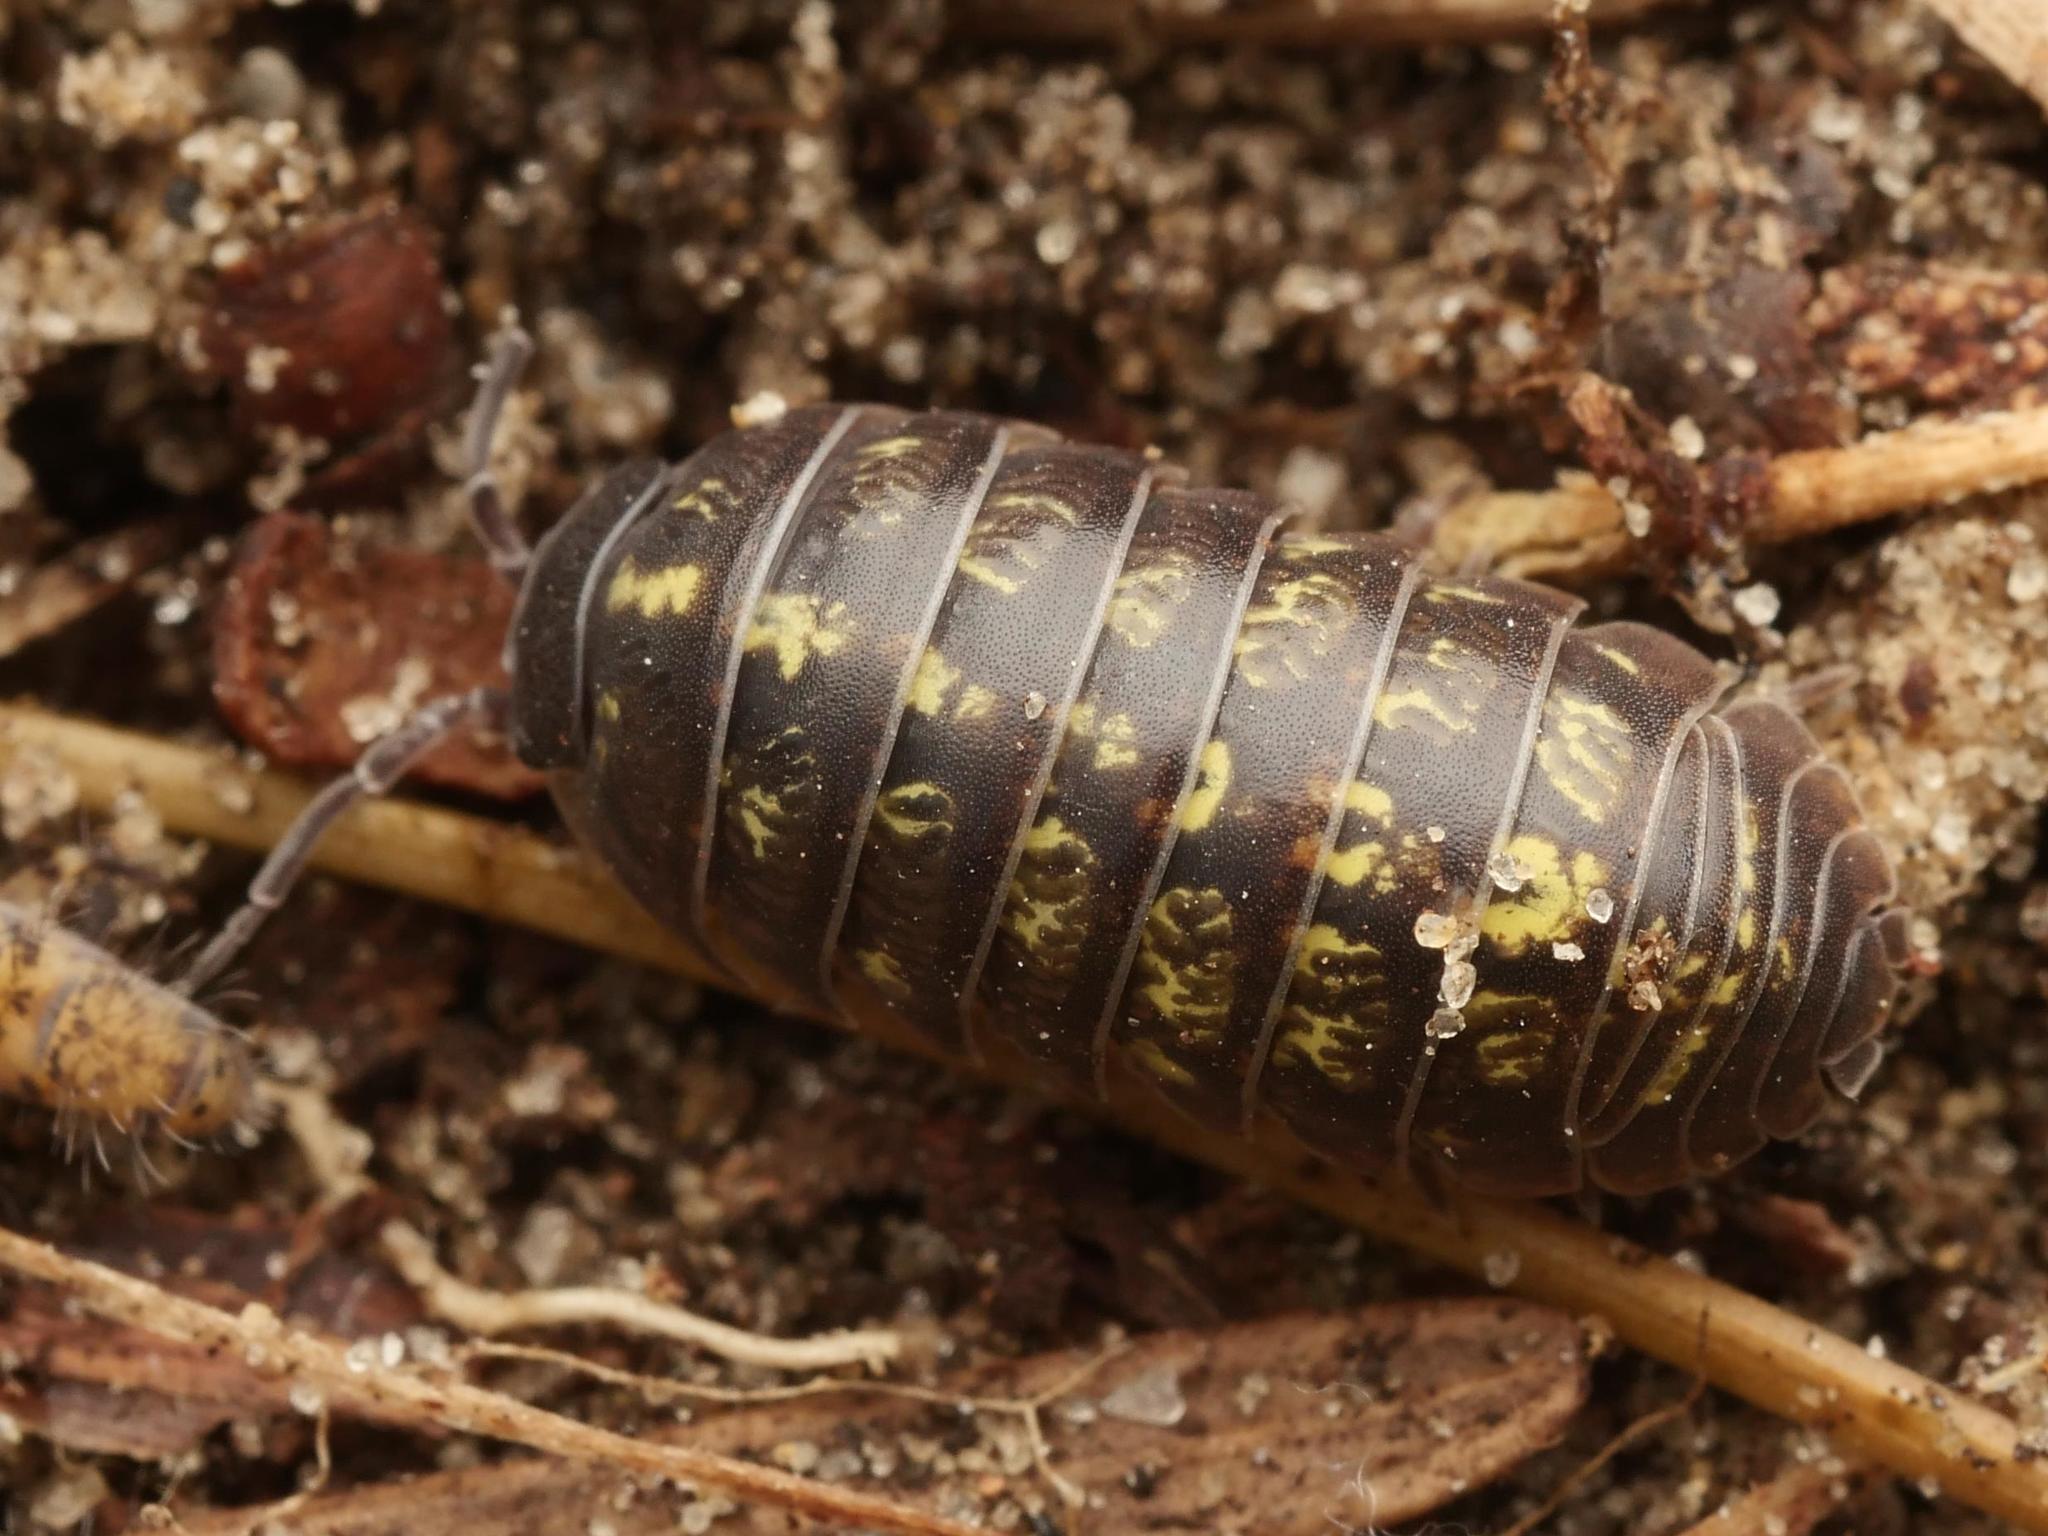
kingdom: Animalia
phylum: Arthropoda
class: Malacostraca
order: Isopoda
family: Armadillidiidae
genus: Armadillidium
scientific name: Armadillidium vulgare
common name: Common pill woodlouse
